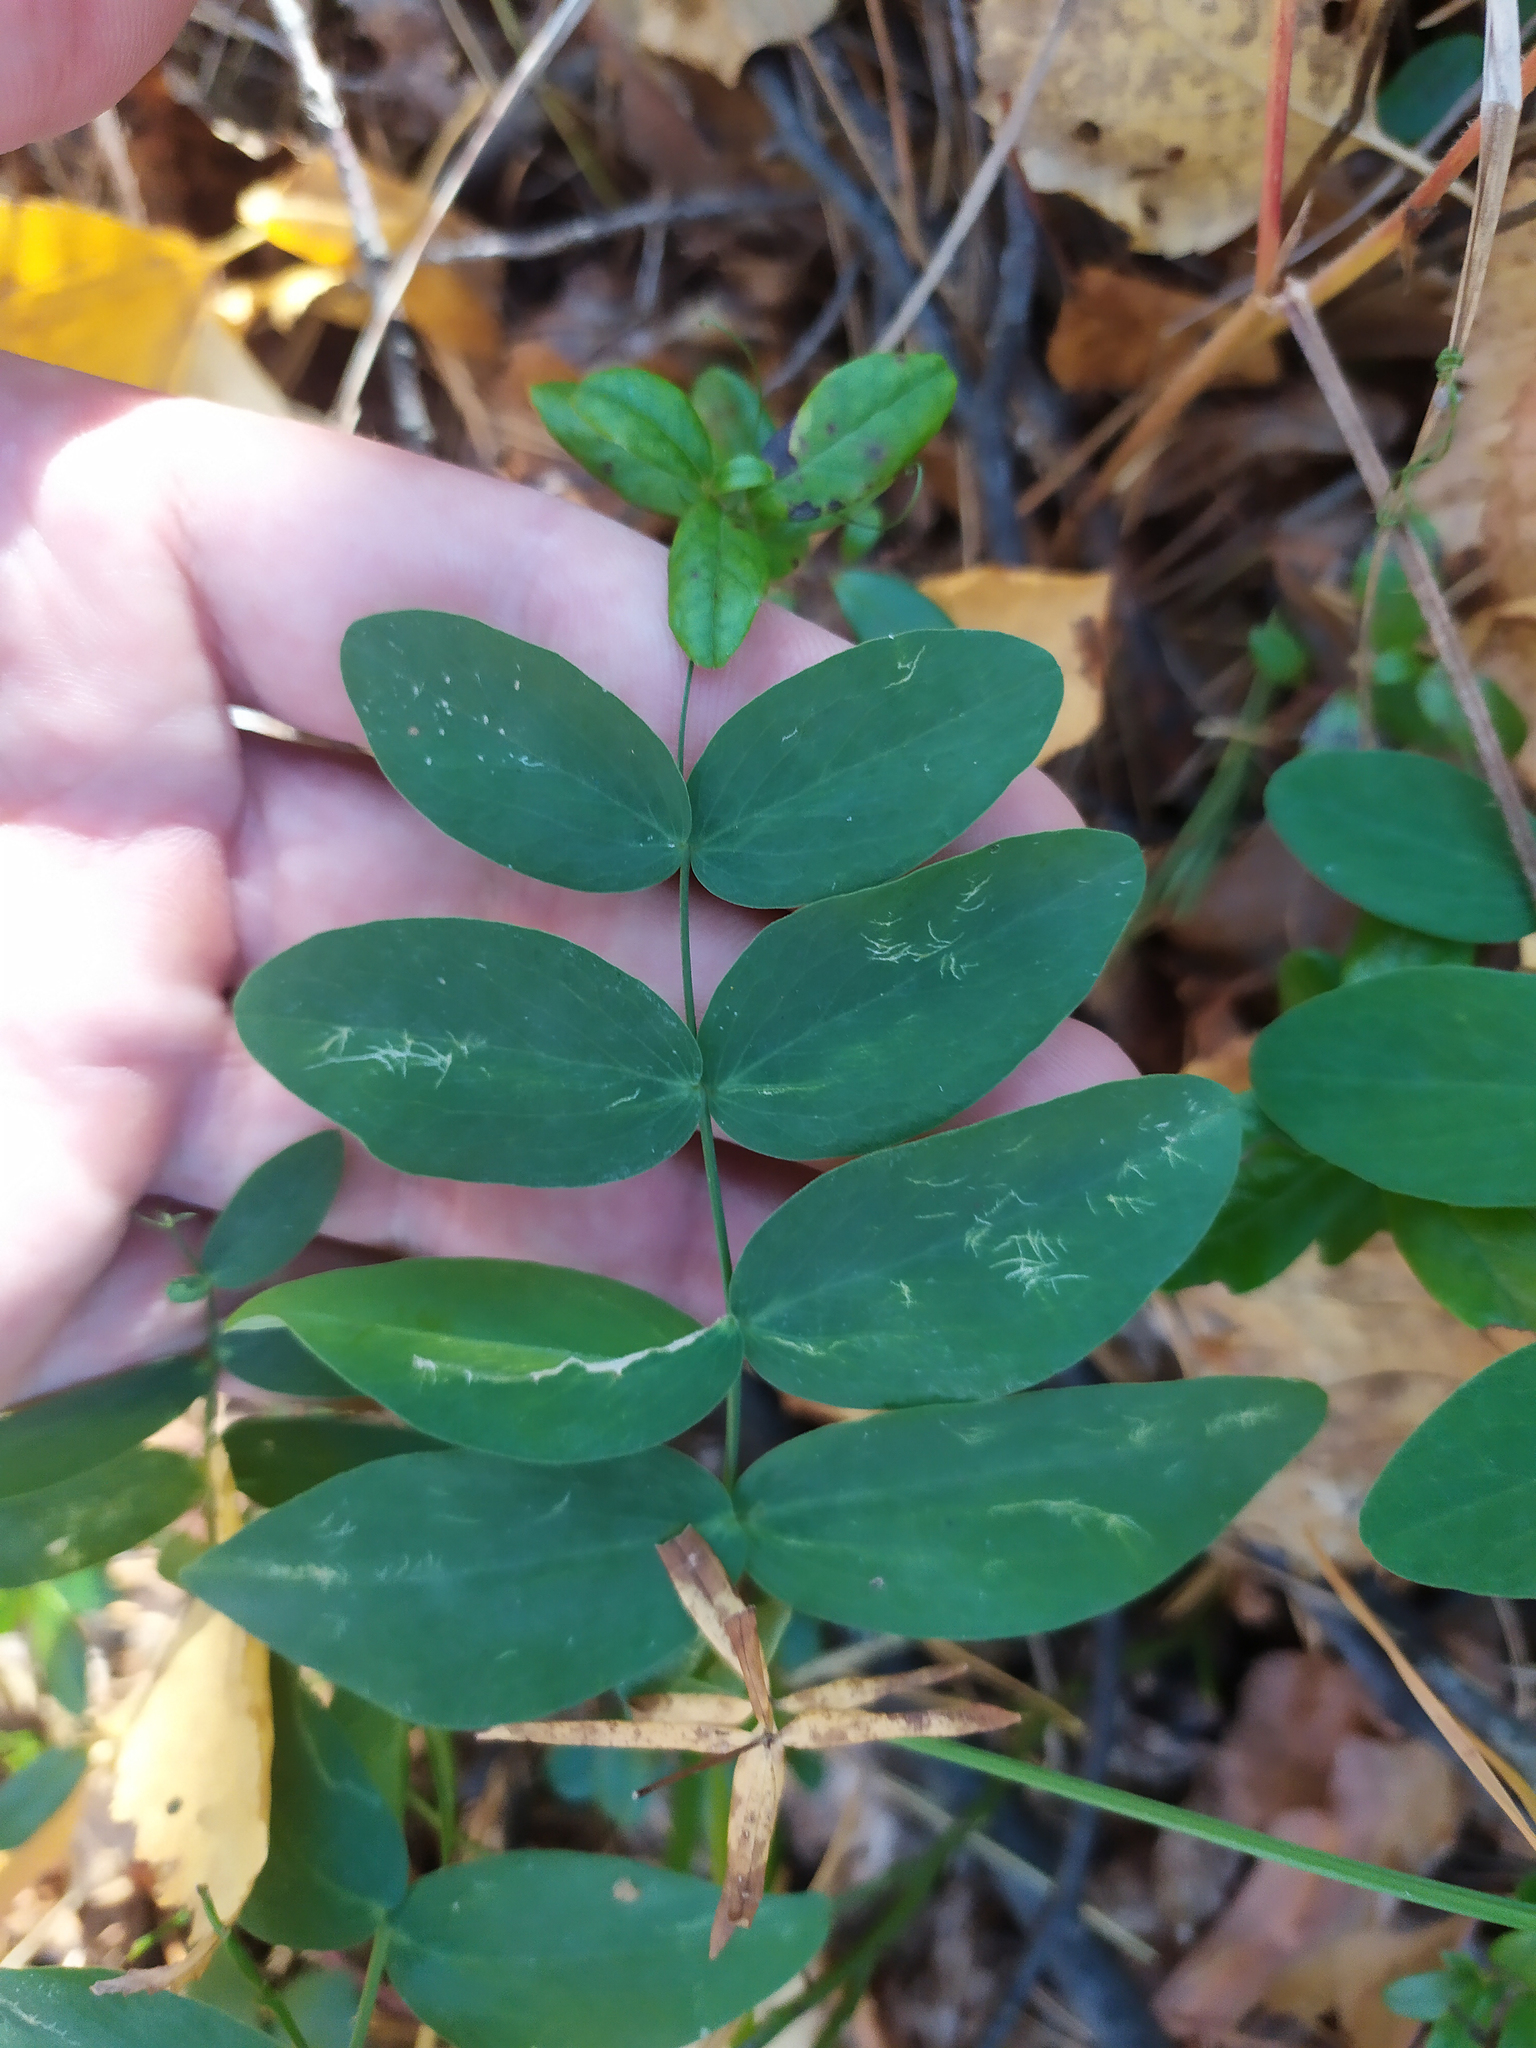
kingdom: Plantae
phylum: Tracheophyta
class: Magnoliopsida
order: Fabales
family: Fabaceae
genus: Lathyrus
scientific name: Lathyrus pisiformis
